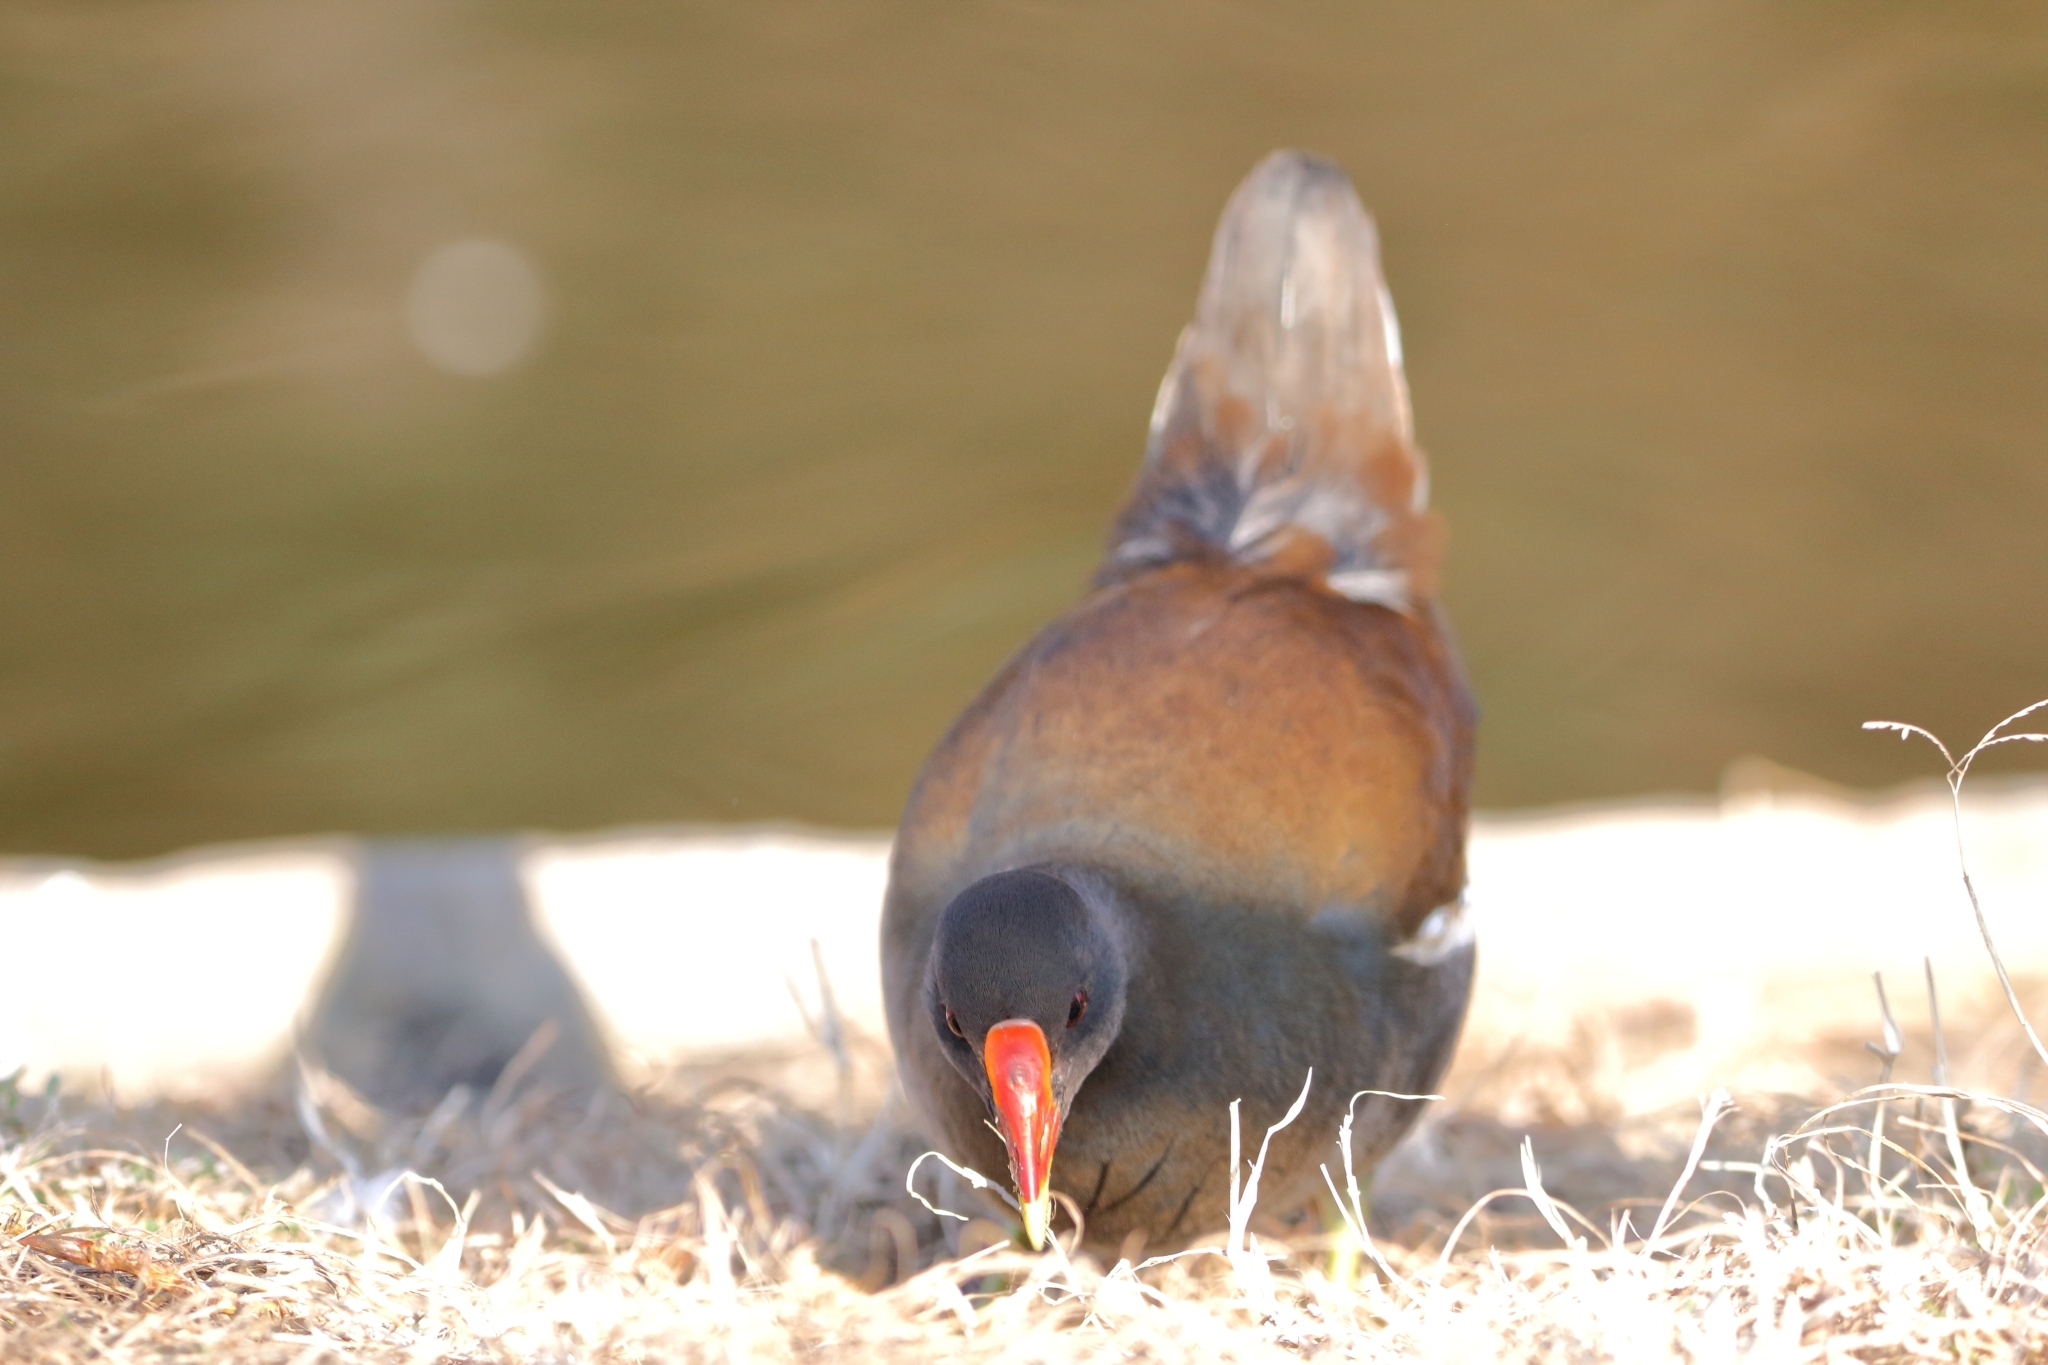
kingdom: Animalia
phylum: Chordata
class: Aves
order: Gruiformes
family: Rallidae
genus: Gallinula
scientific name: Gallinula chloropus
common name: Common moorhen
